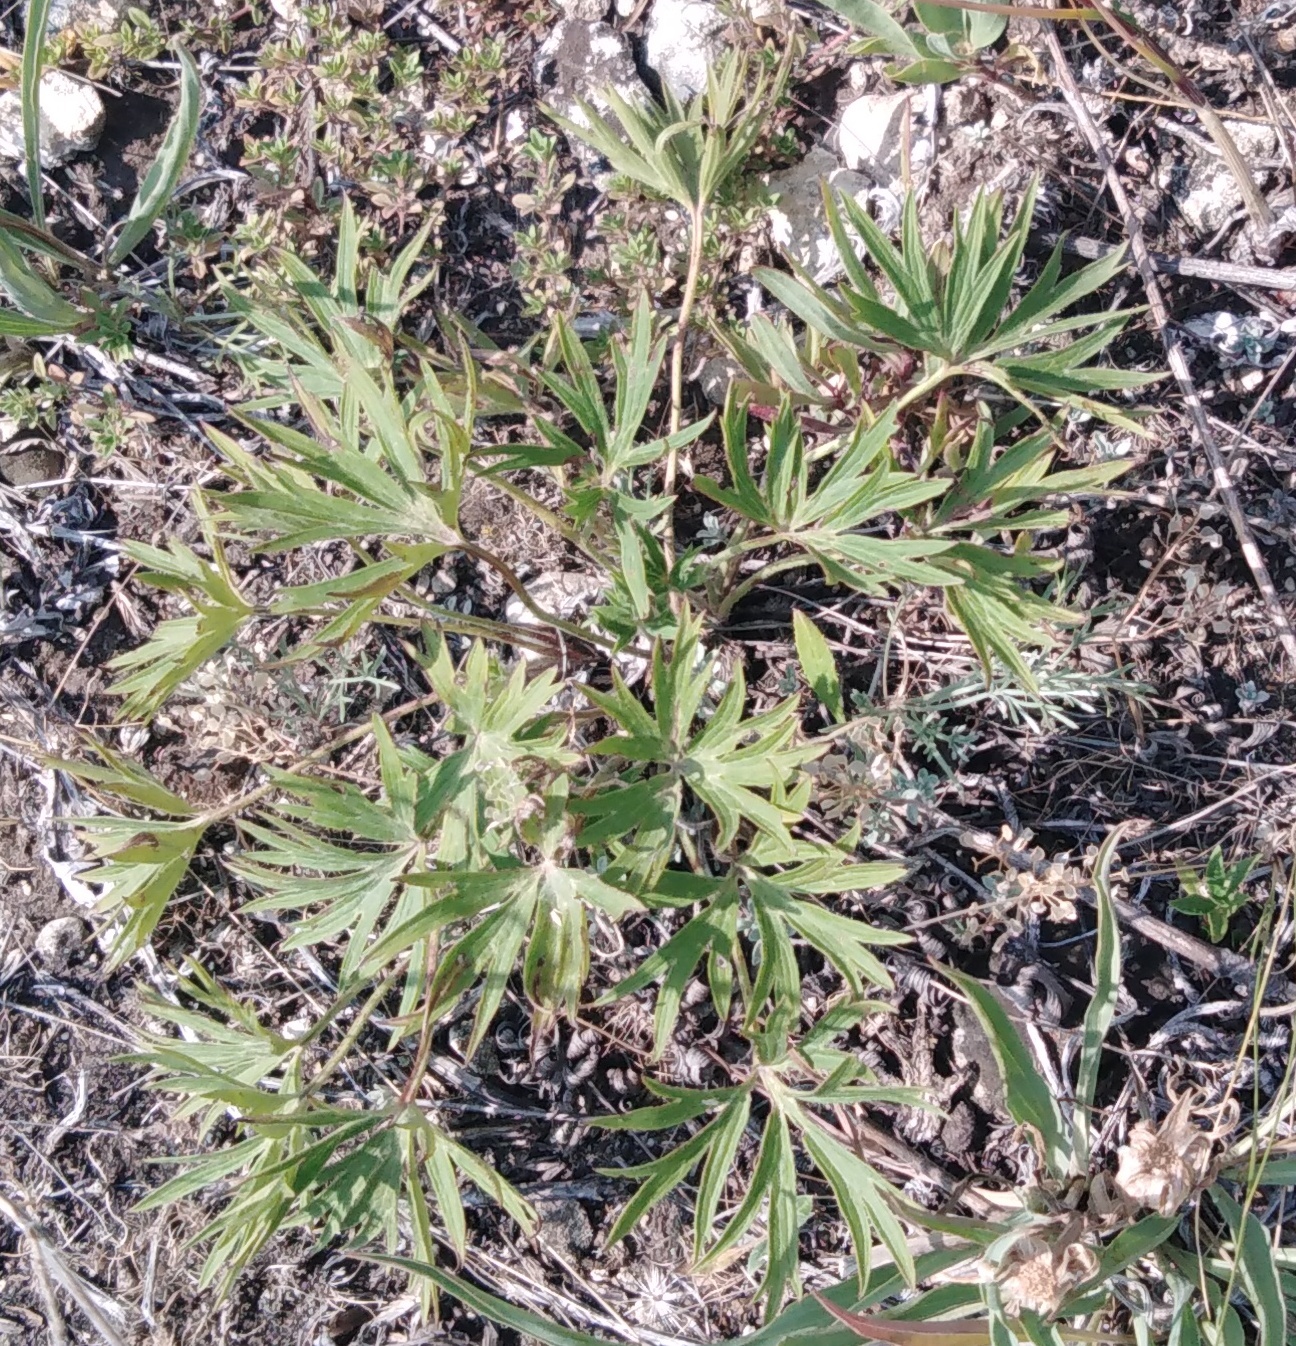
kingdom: Plantae
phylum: Tracheophyta
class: Magnoliopsida
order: Ranunculales
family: Ranunculaceae
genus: Pulsatilla
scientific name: Pulsatilla patens
